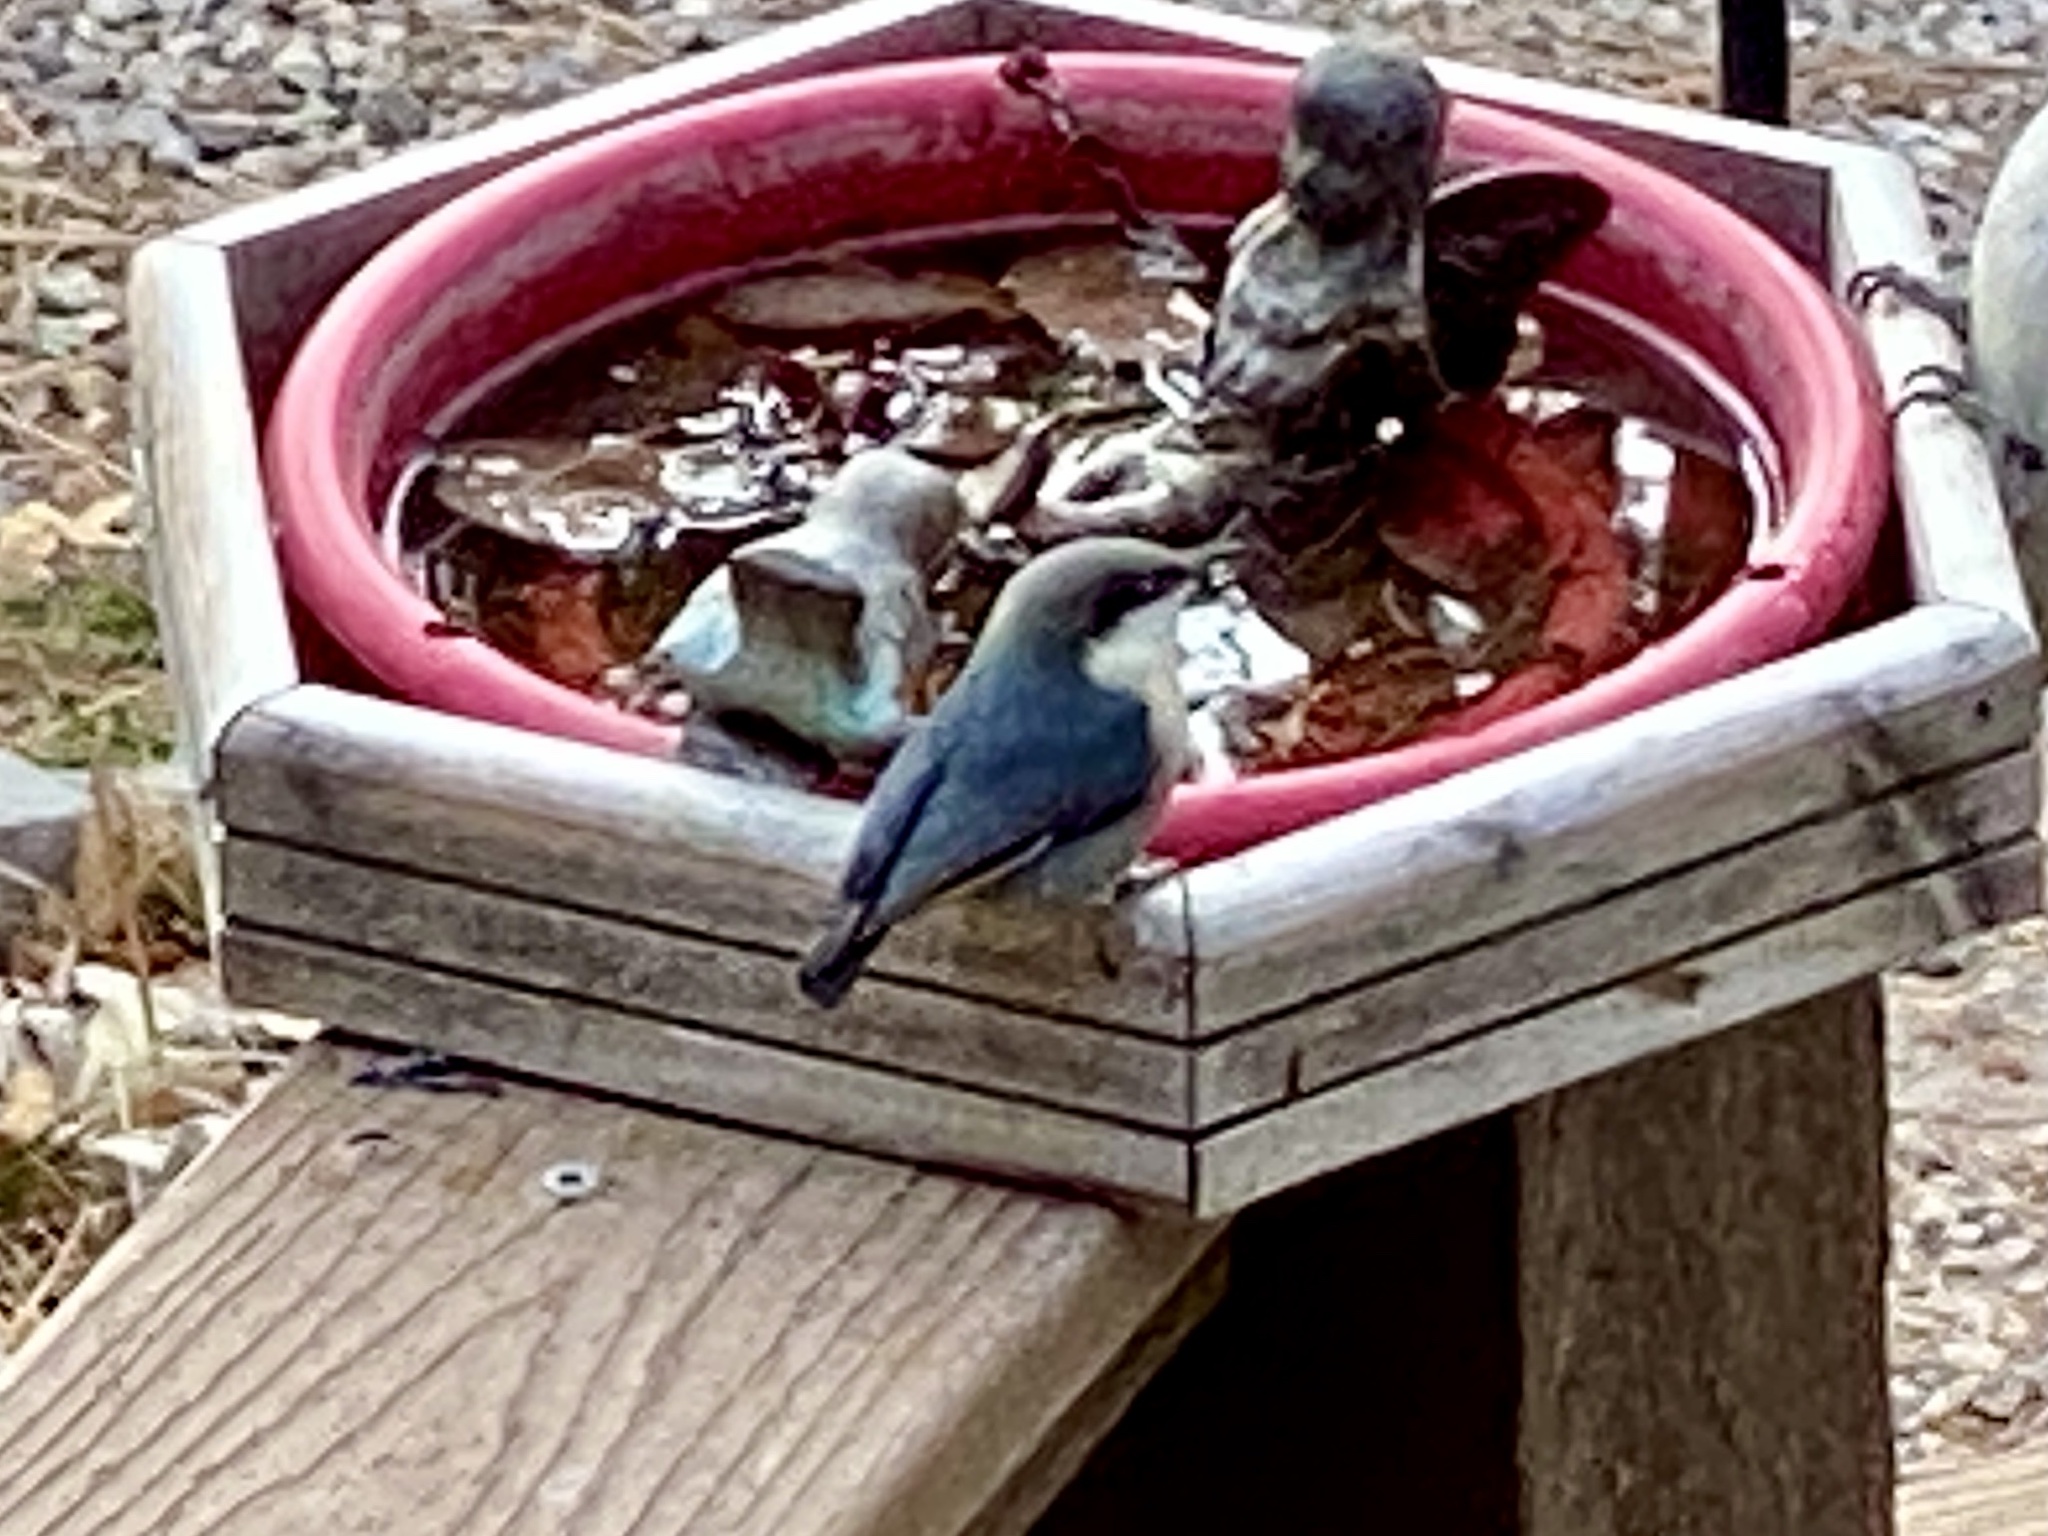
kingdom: Animalia
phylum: Chordata
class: Aves
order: Passeriformes
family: Sittidae
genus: Sitta
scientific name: Sitta pygmaea
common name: Pygmy nuthatch
